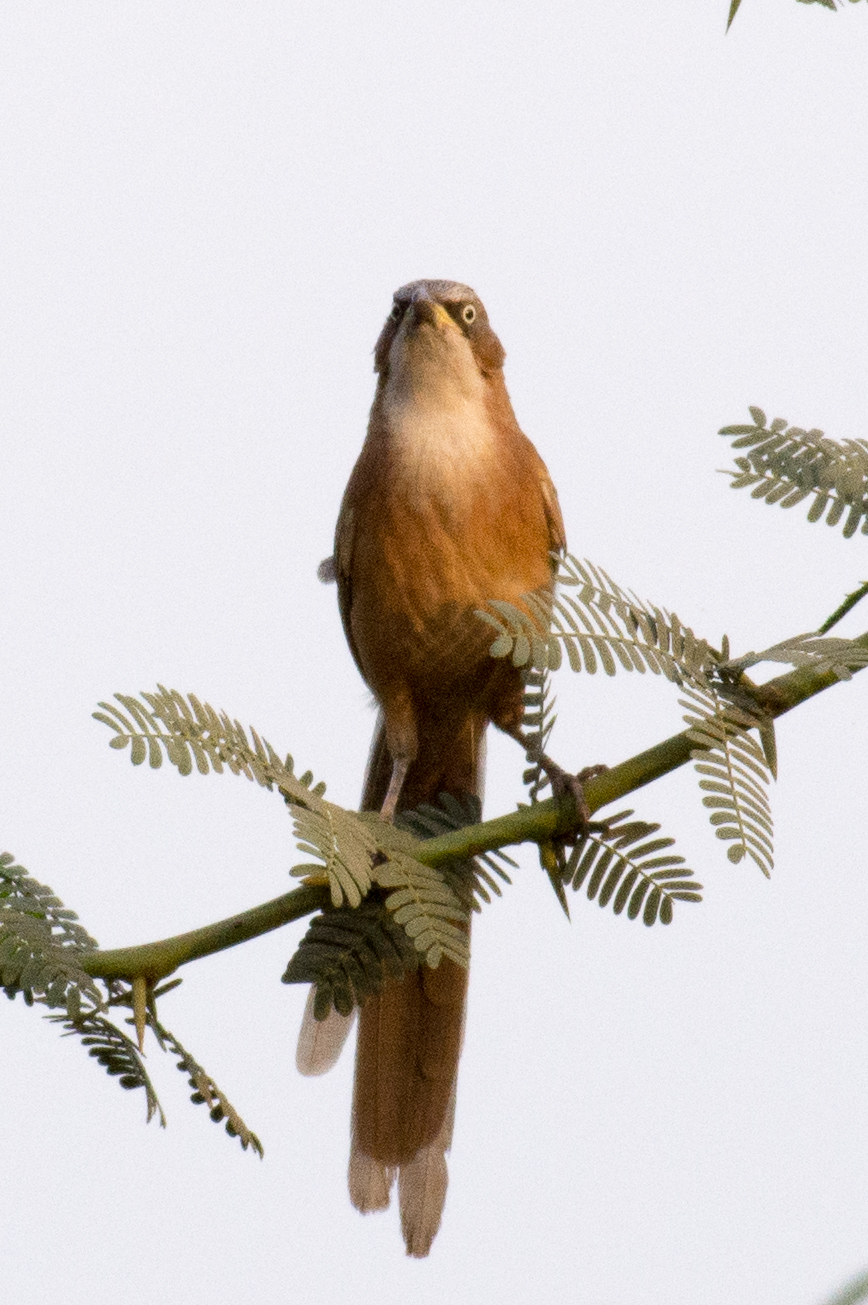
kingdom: Animalia
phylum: Chordata
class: Aves
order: Passeriformes
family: Leiothrichidae
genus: Turdoides
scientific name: Turdoides gularis
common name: White-throated babbler
